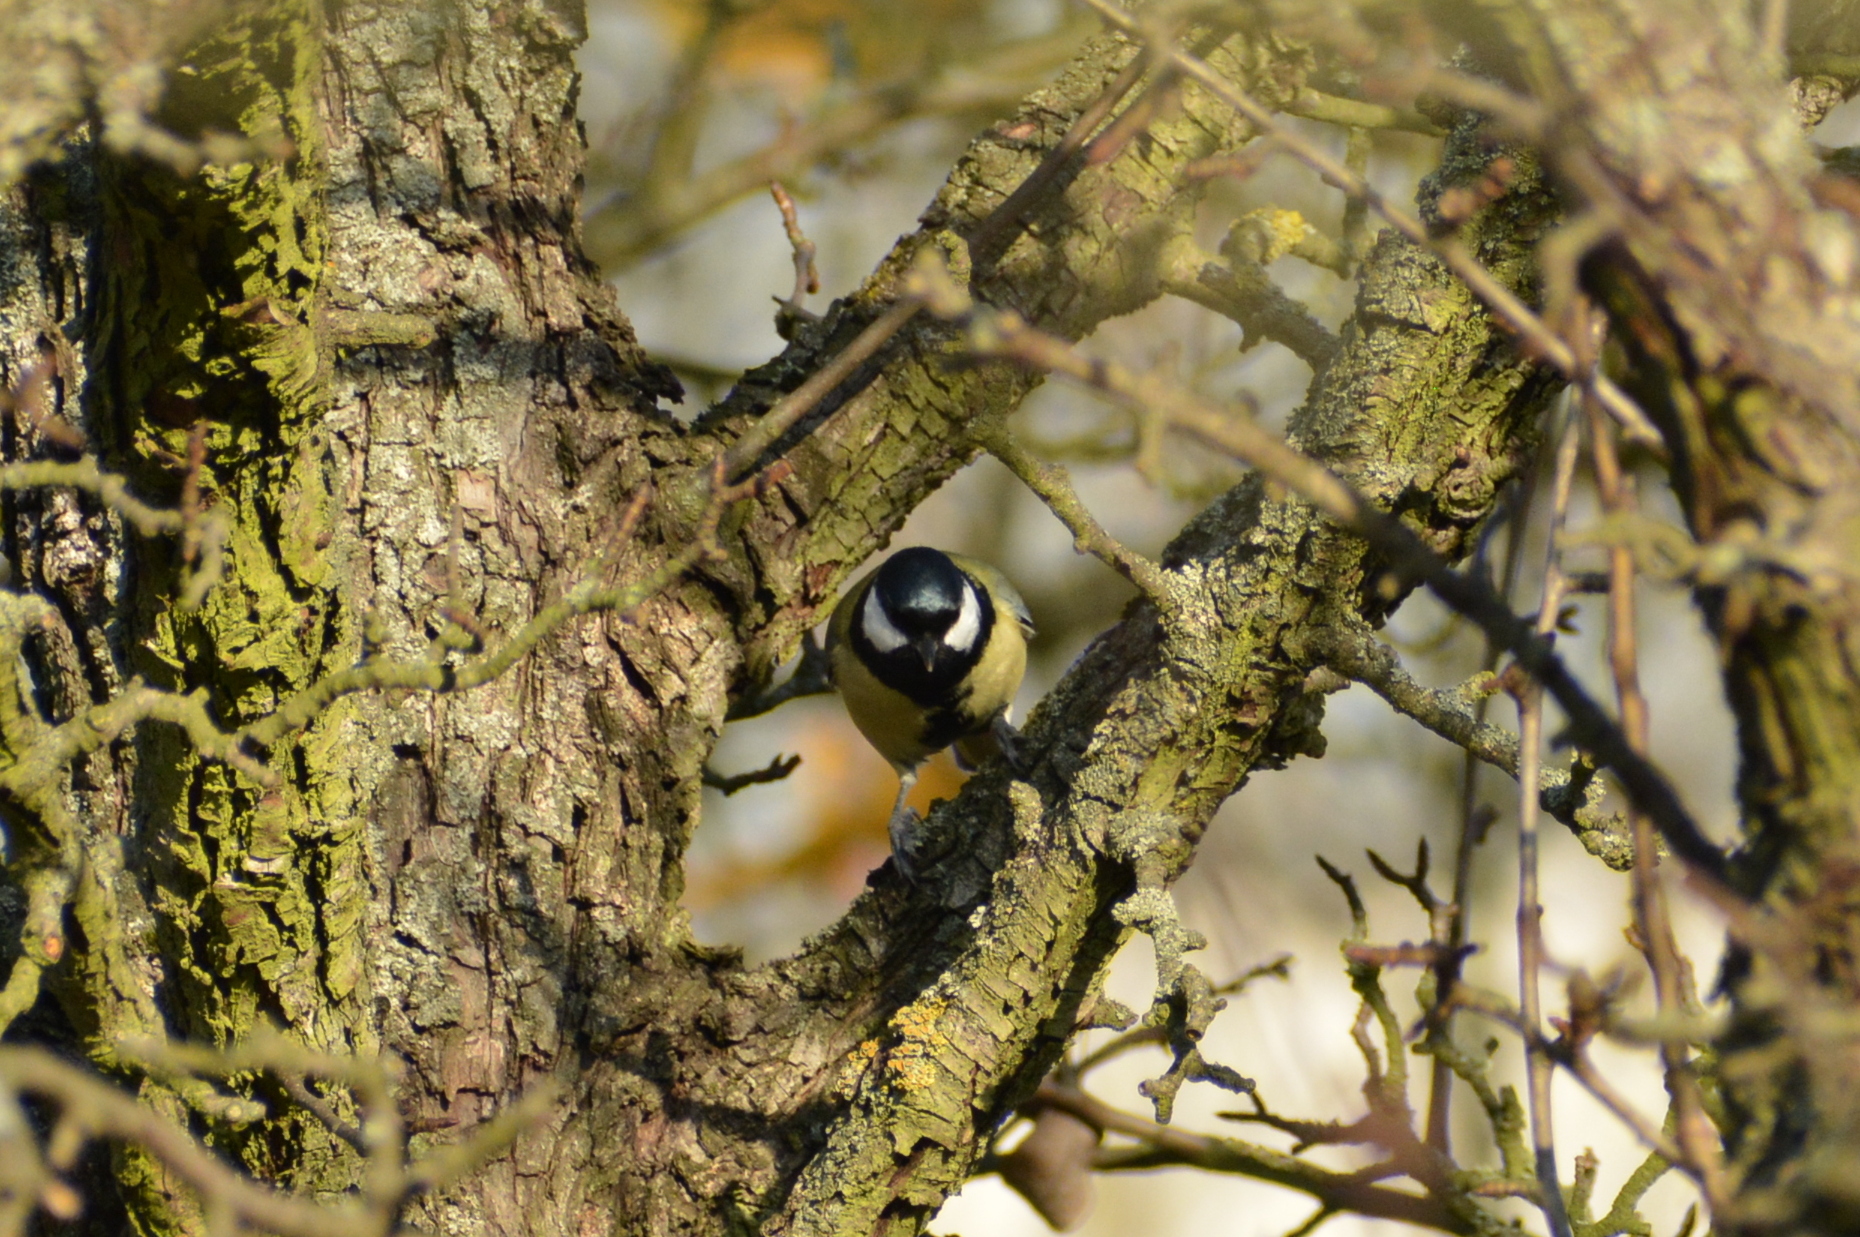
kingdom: Animalia
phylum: Chordata
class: Aves
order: Passeriformes
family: Paridae
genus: Parus
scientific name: Parus major
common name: Great tit
